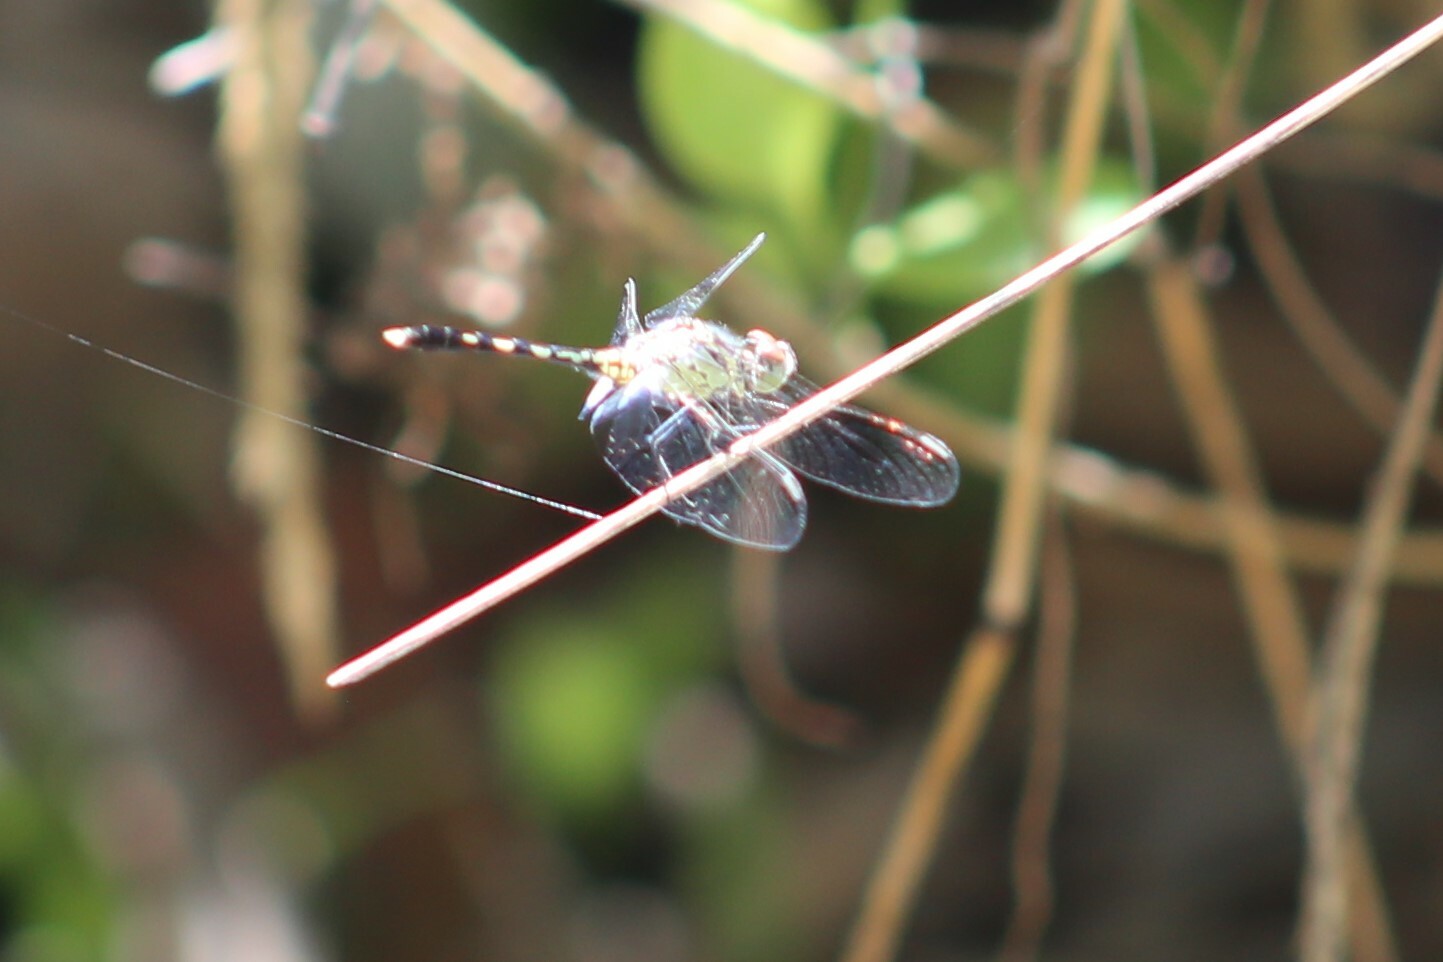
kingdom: Animalia
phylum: Arthropoda
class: Insecta
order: Odonata
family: Libellulidae
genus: Diplacodes
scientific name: Diplacodes trivialis
